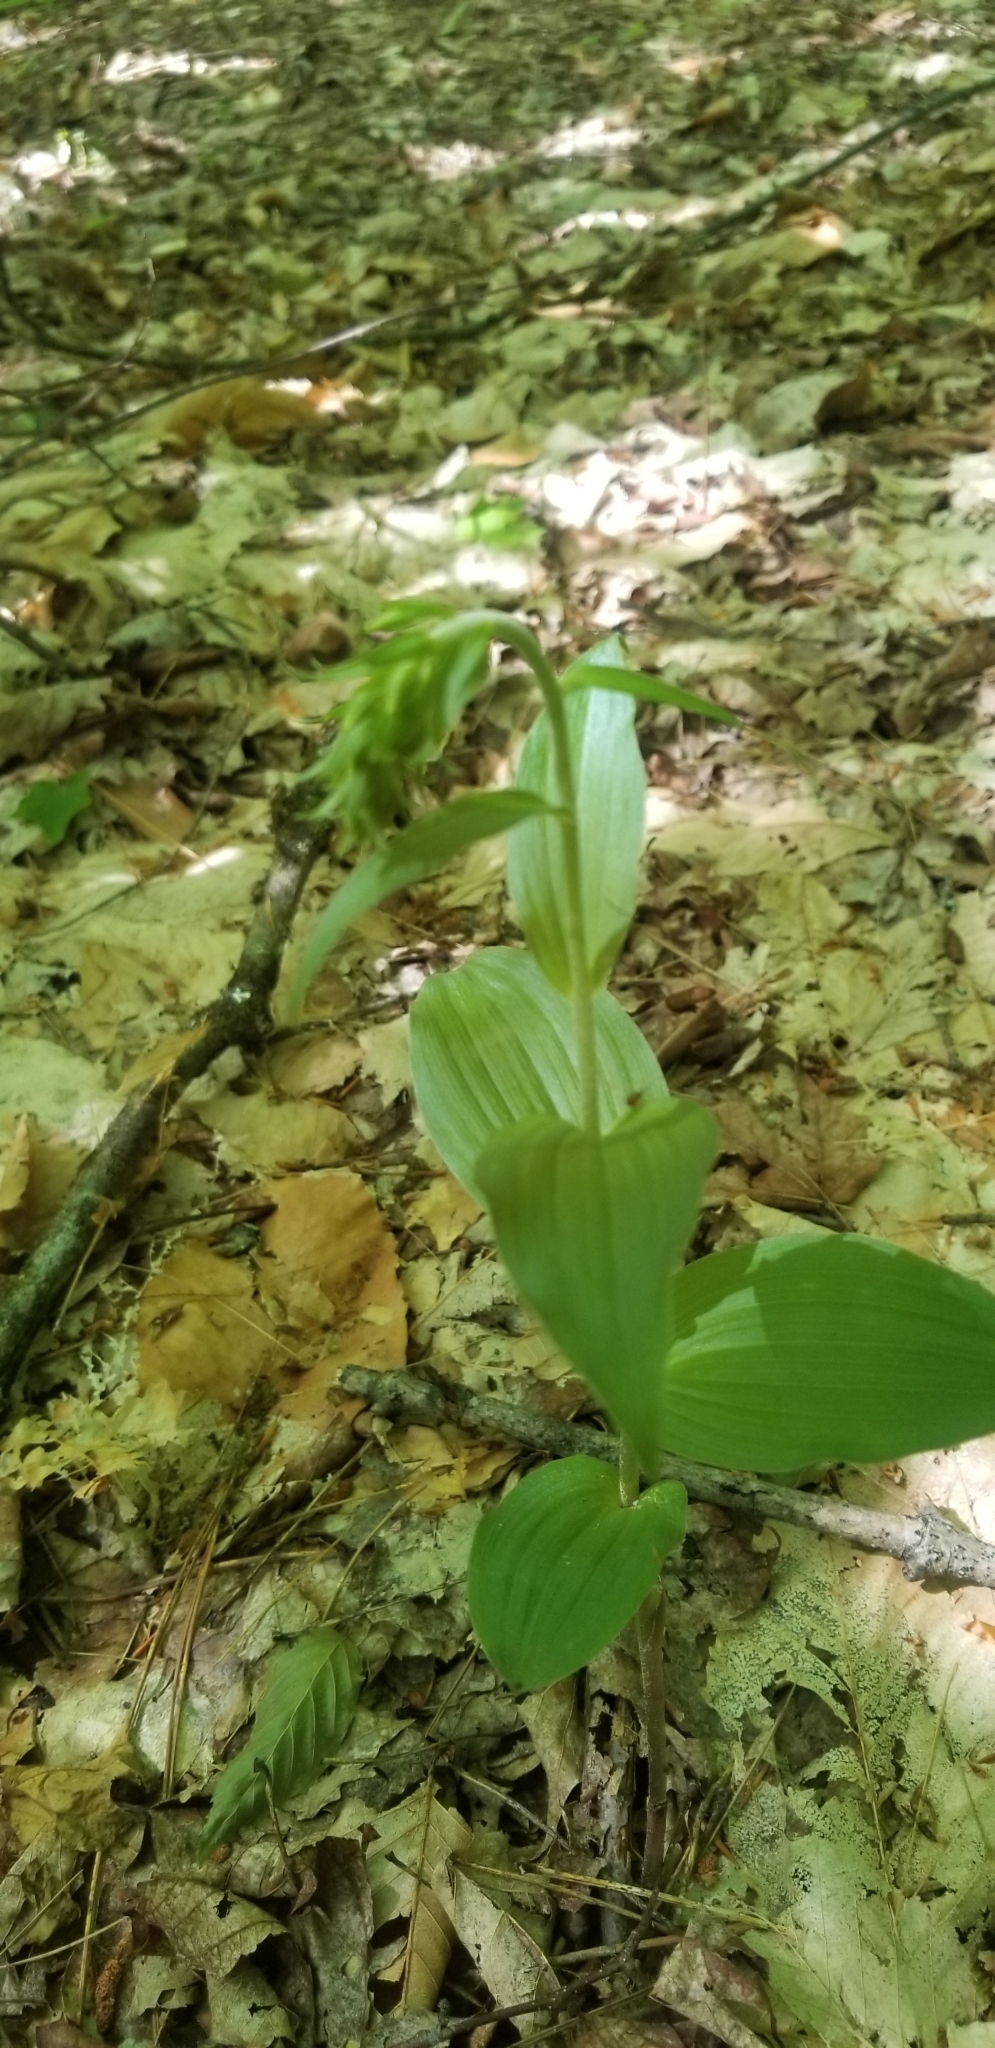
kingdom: Plantae
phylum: Tracheophyta
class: Liliopsida
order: Asparagales
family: Orchidaceae
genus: Epipactis
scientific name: Epipactis helleborine
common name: Broad-leaved helleborine
